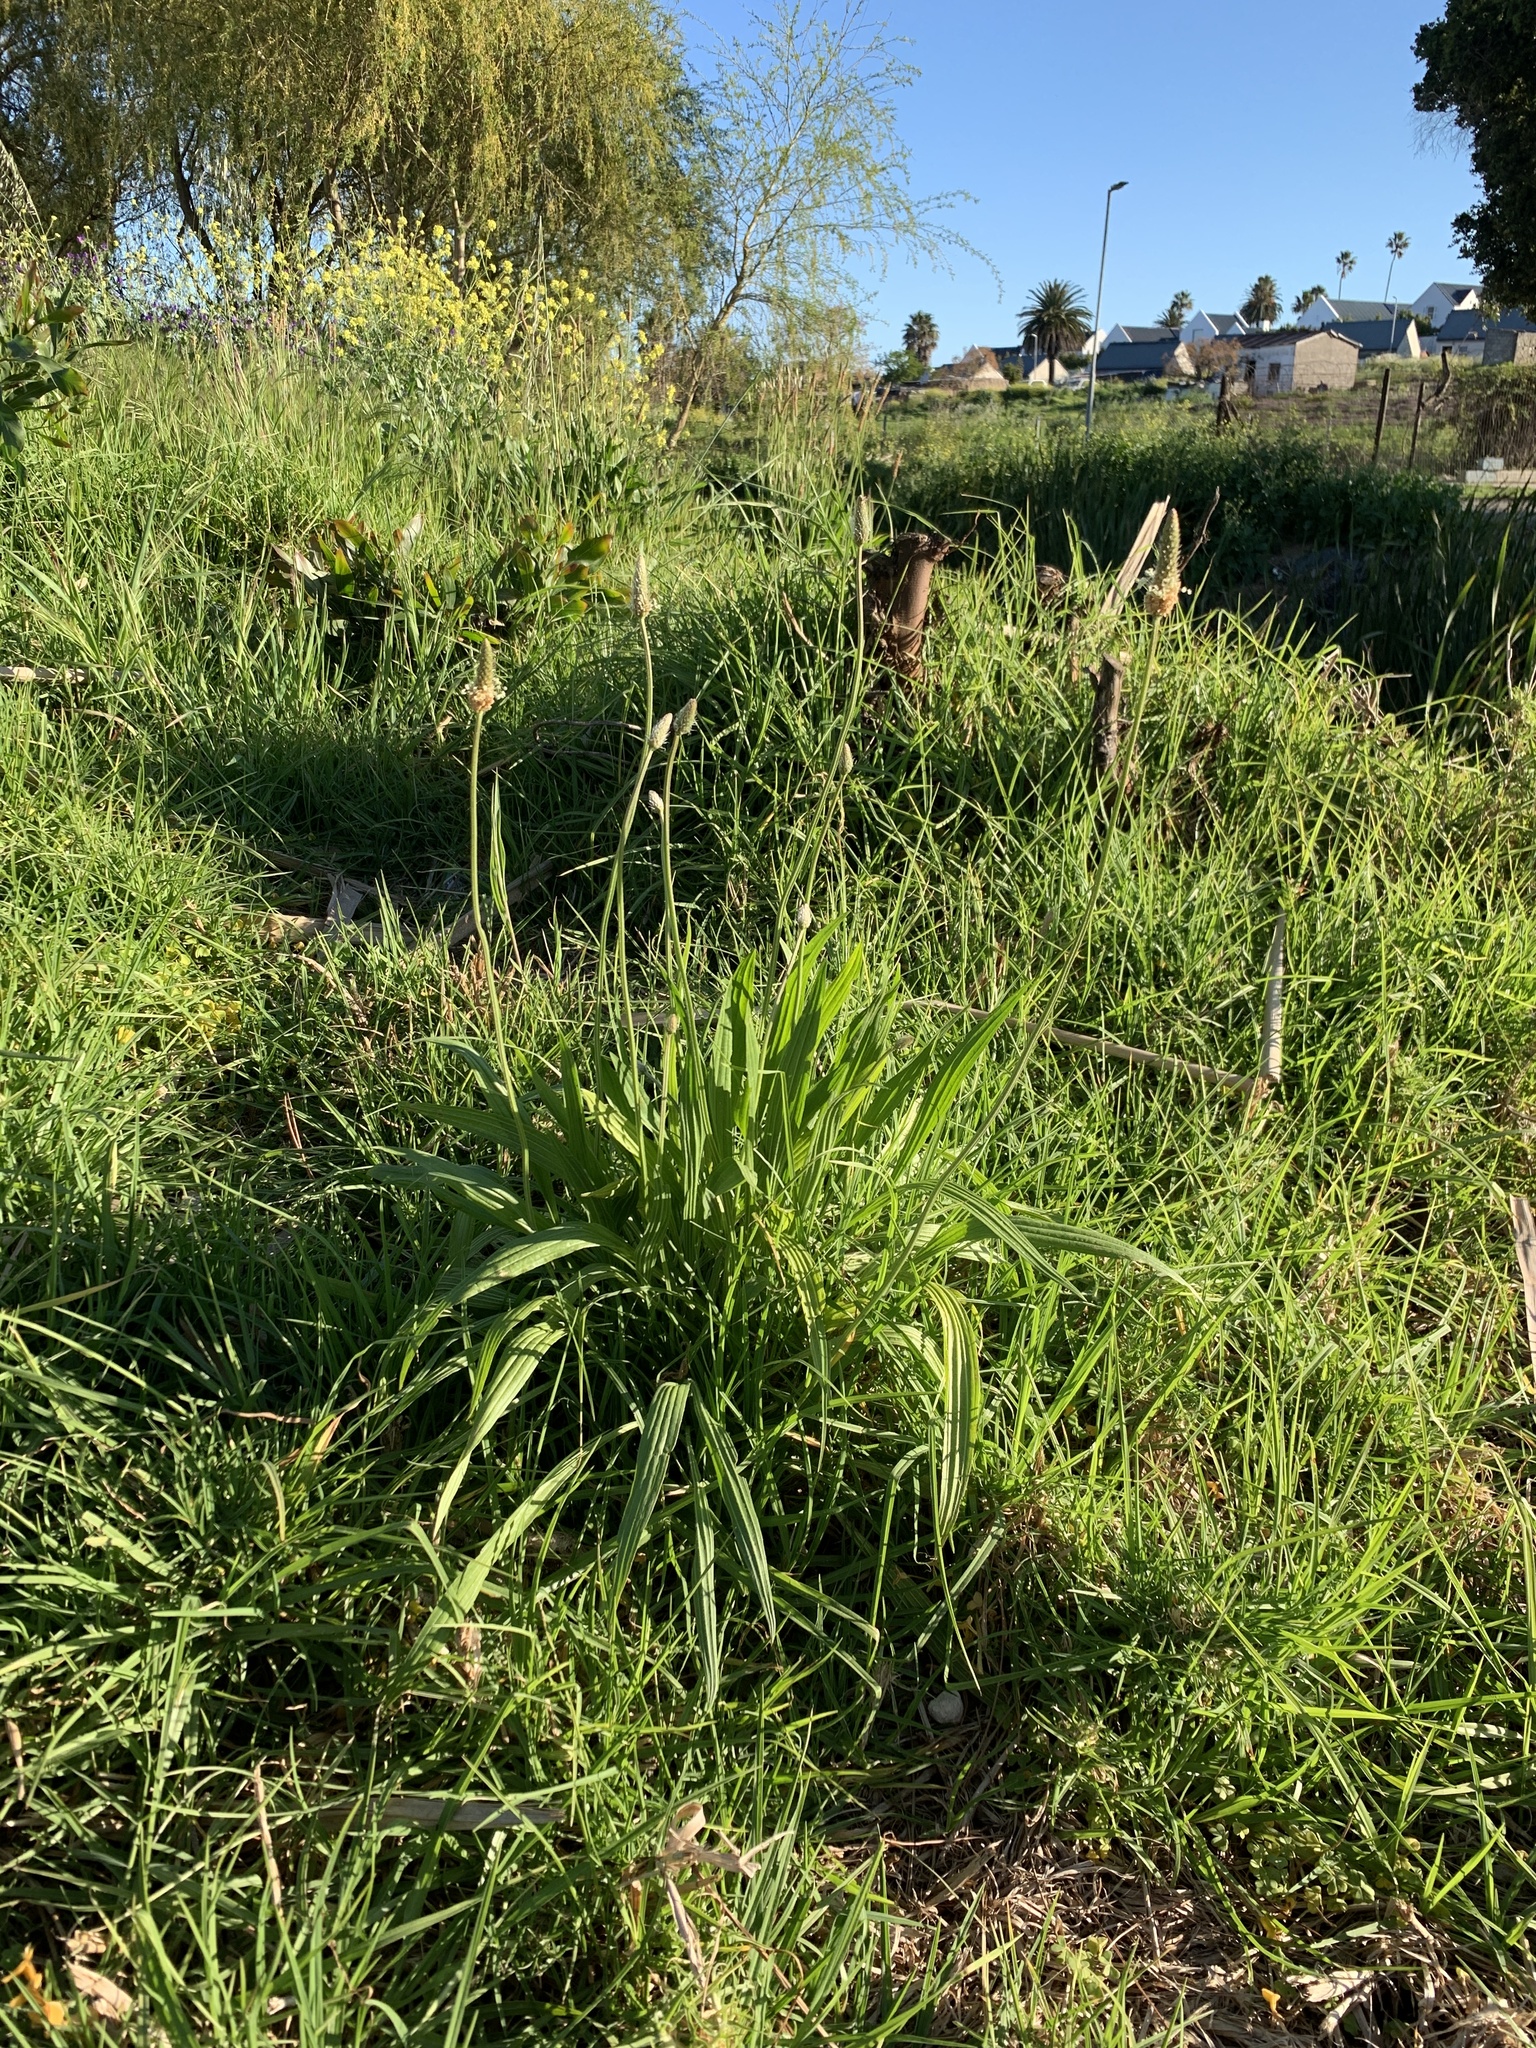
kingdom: Plantae
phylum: Tracheophyta
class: Magnoliopsida
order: Lamiales
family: Plantaginaceae
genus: Plantago
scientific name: Plantago lanceolata
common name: Ribwort plantain
